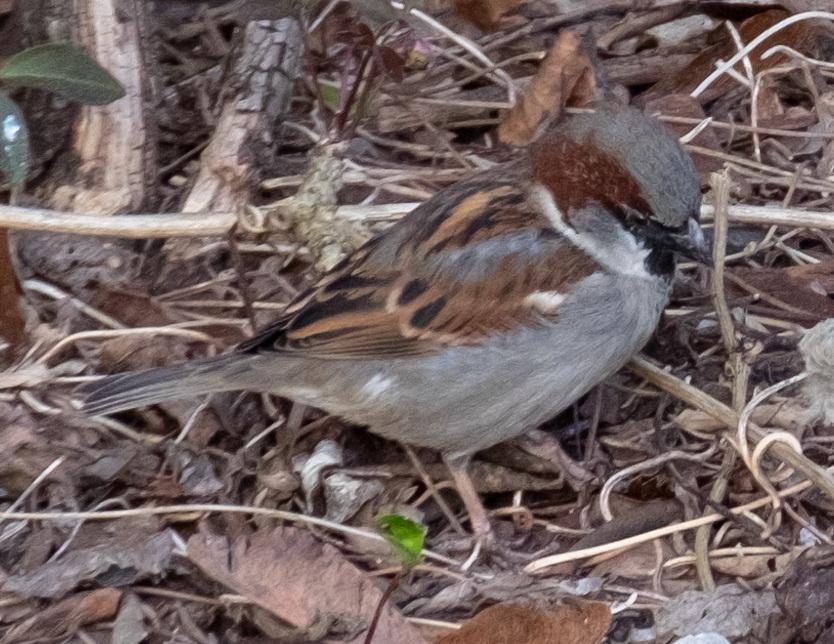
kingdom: Animalia
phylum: Chordata
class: Aves
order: Passeriformes
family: Passeridae
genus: Passer
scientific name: Passer domesticus
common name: House sparrow
